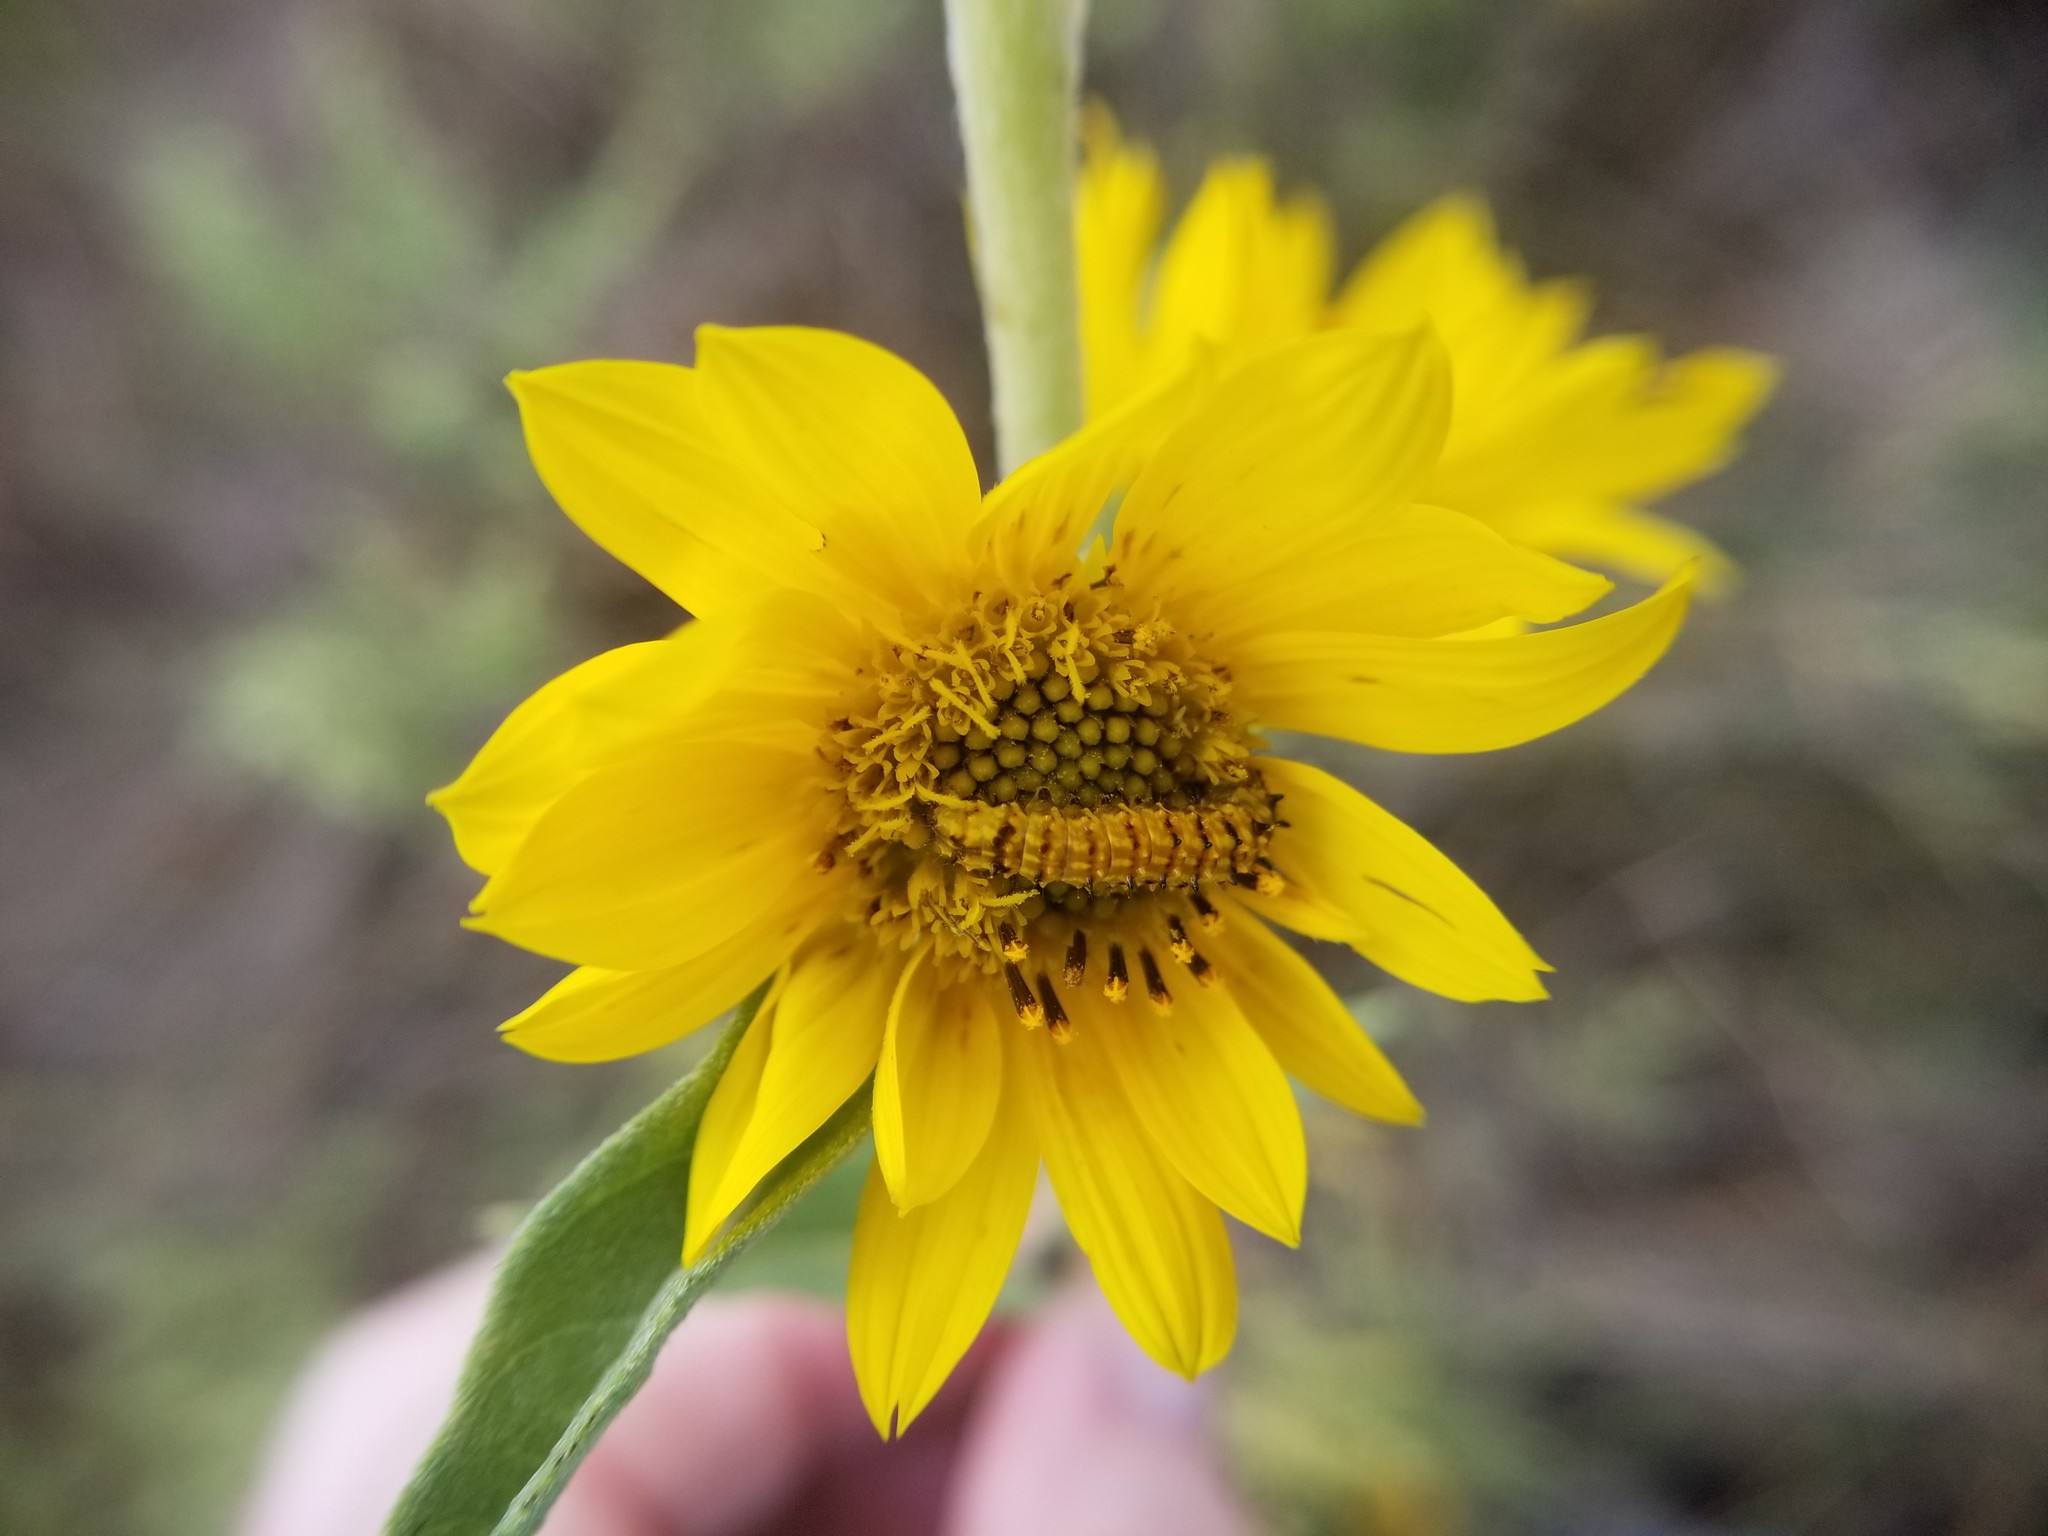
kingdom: Animalia
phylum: Arthropoda
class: Insecta
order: Lepidoptera
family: Noctuidae
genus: Stiria
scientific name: Stiria rugifrons
